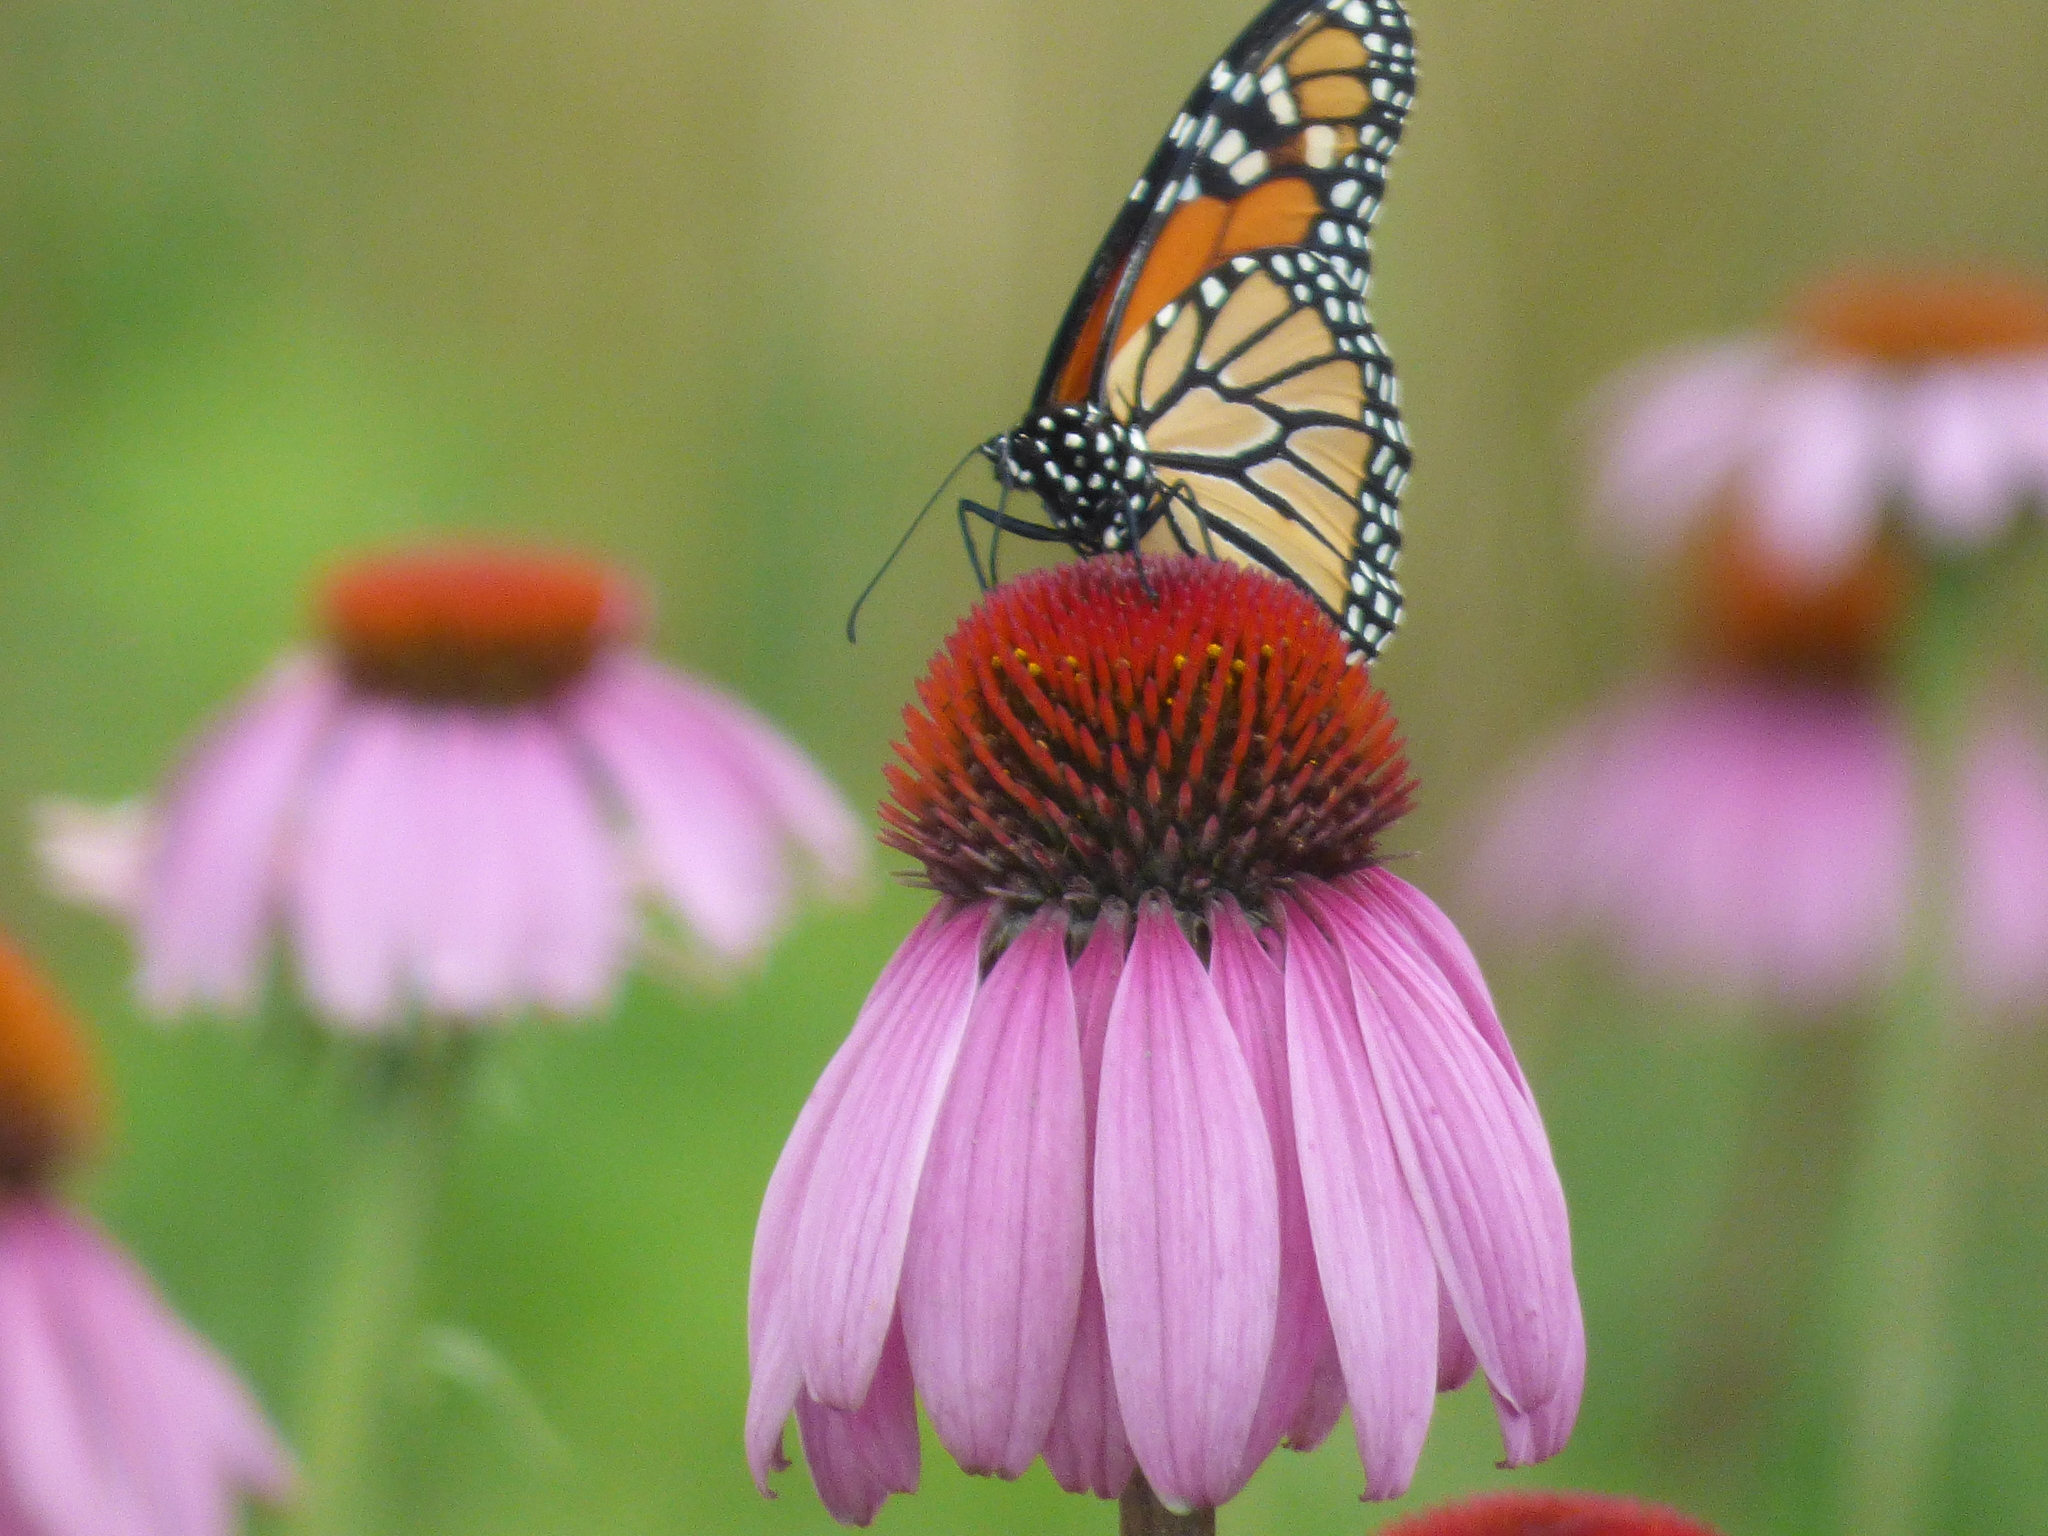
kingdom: Animalia
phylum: Arthropoda
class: Insecta
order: Lepidoptera
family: Nymphalidae
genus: Danaus
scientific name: Danaus plexippus
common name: Monarch
